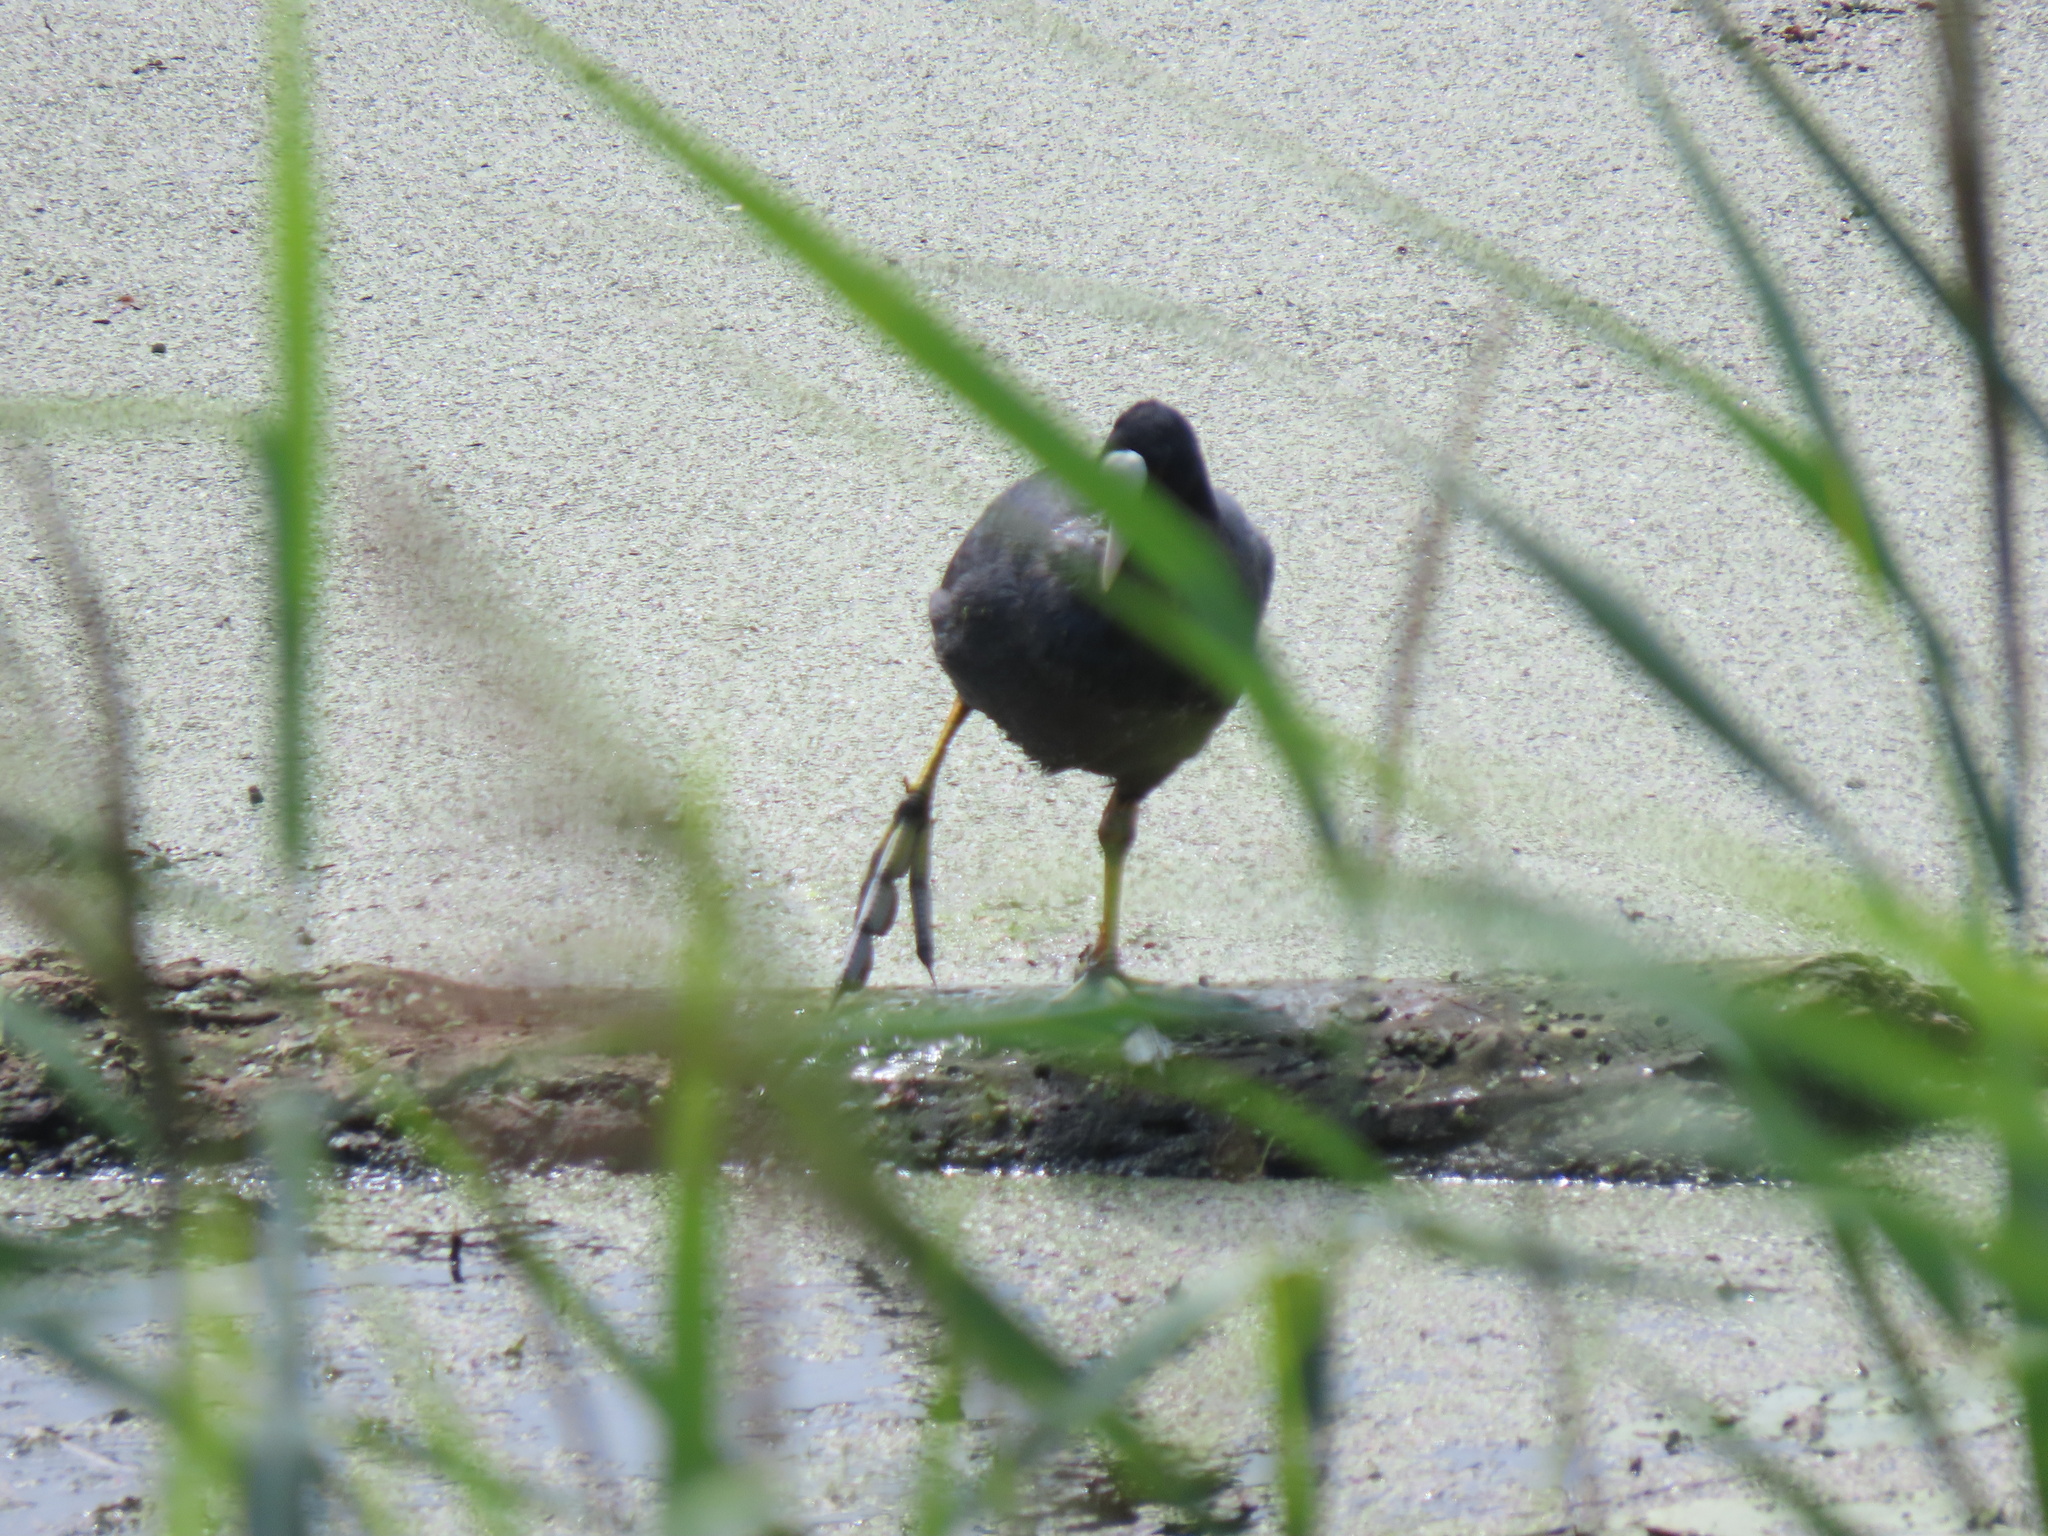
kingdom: Animalia
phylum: Chordata
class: Aves
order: Gruiformes
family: Rallidae
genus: Fulica
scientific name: Fulica atra
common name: Eurasian coot
